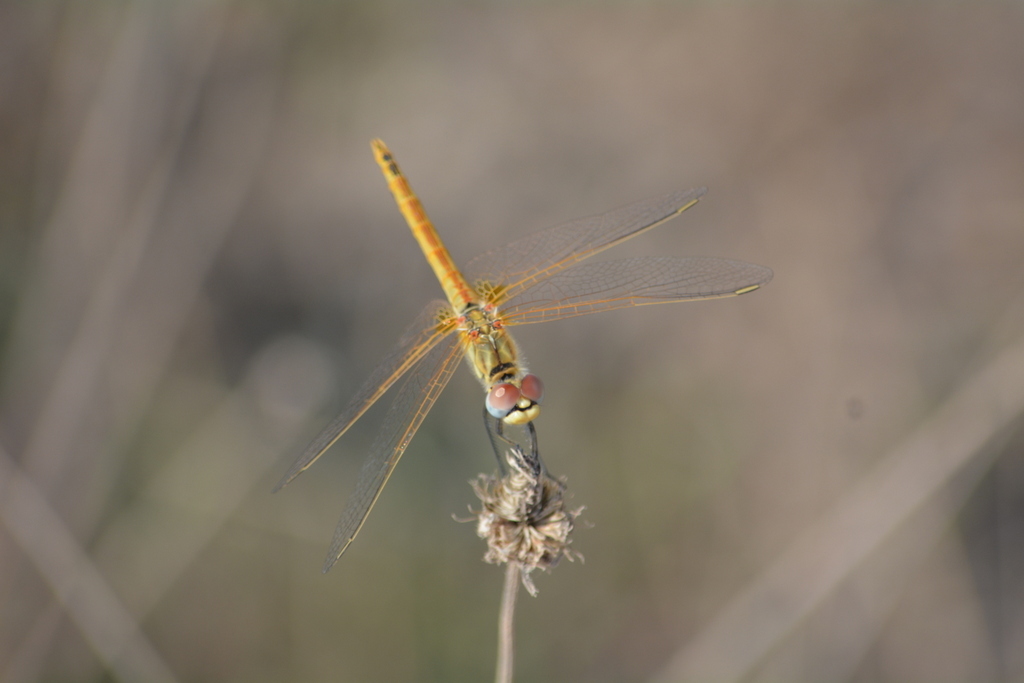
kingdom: Animalia
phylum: Arthropoda
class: Insecta
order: Odonata
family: Libellulidae
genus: Sympetrum
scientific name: Sympetrum fonscolombii
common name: Red-veined darter
